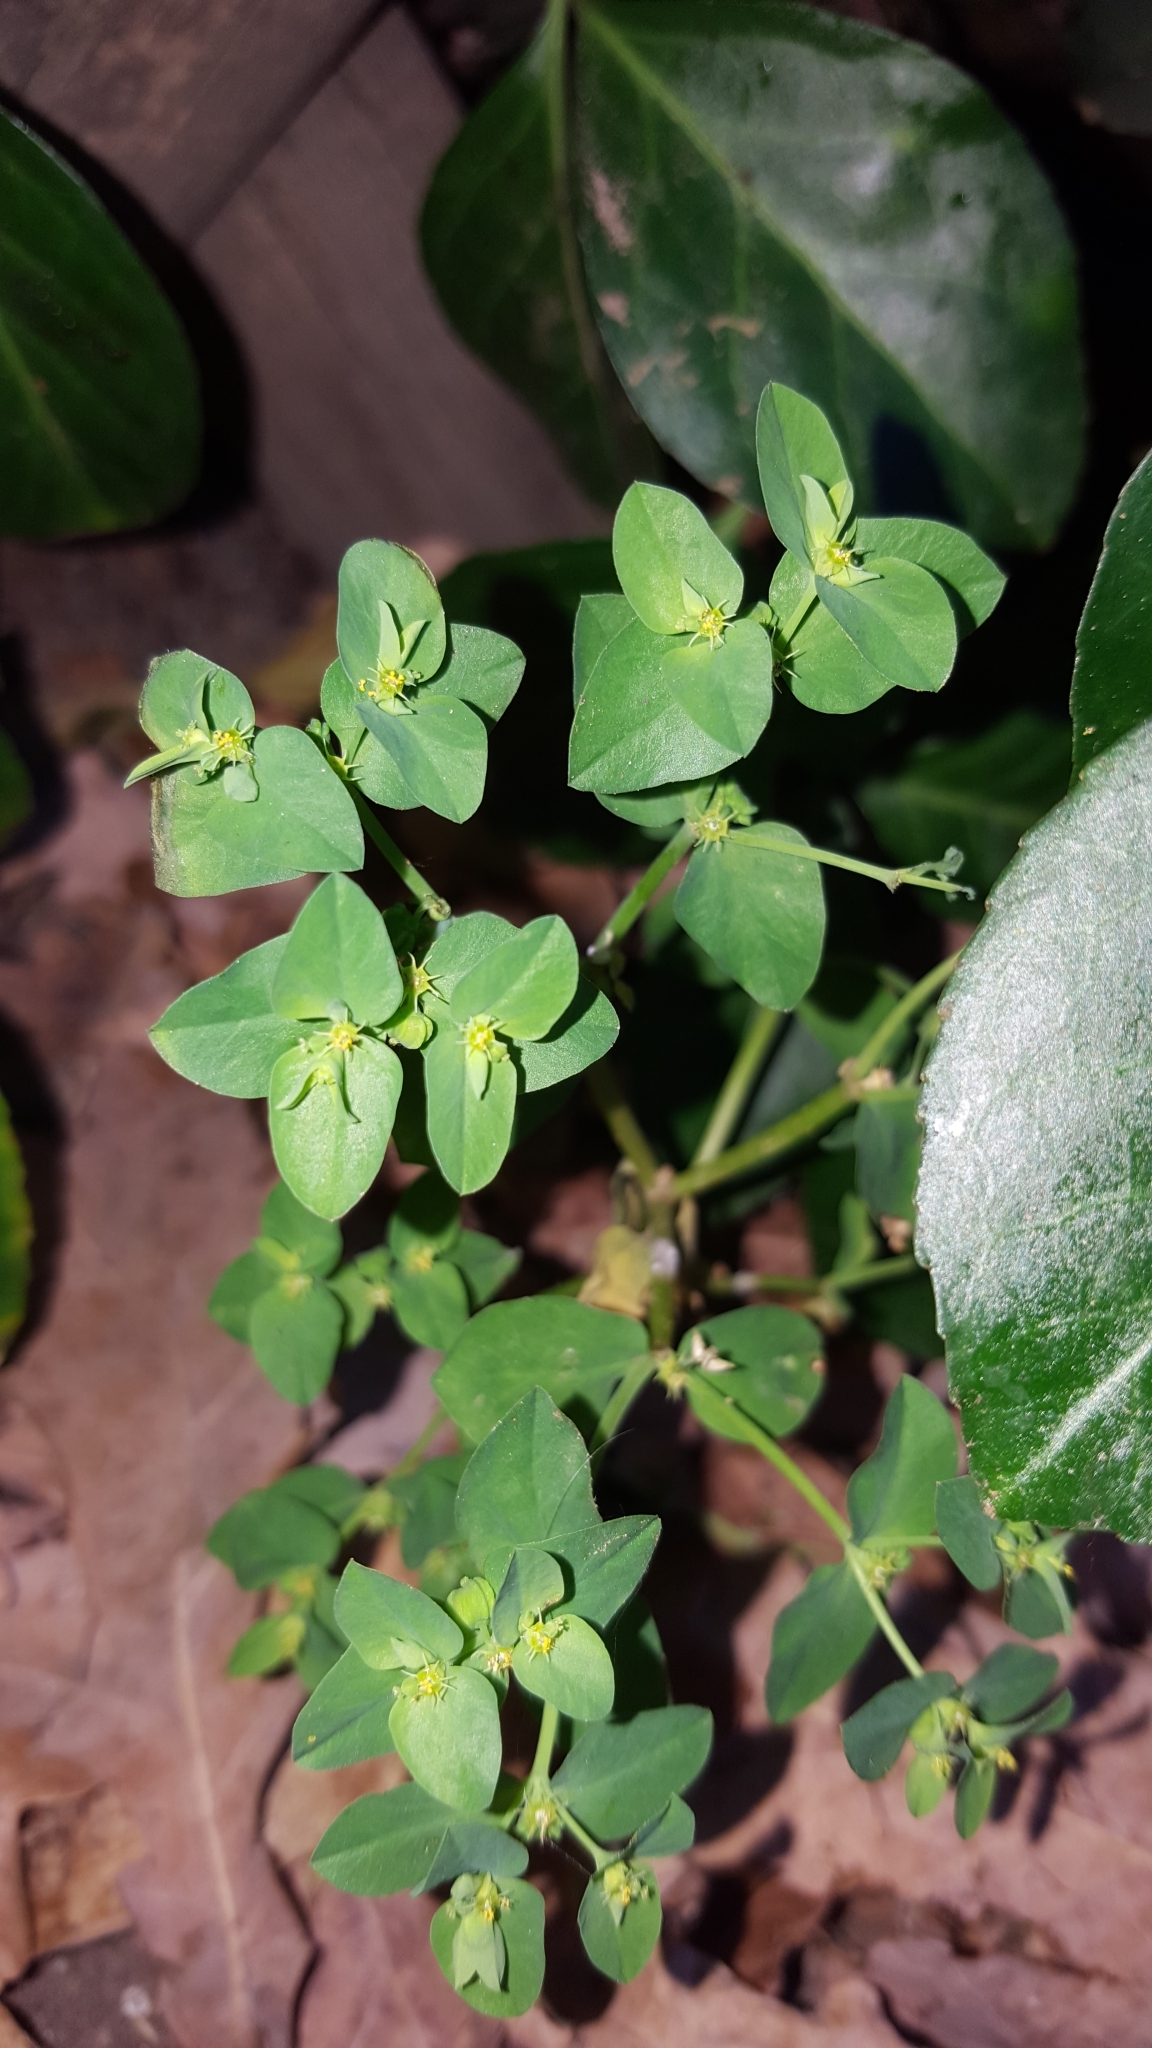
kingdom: Plantae
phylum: Tracheophyta
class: Magnoliopsida
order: Malpighiales
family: Euphorbiaceae
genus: Euphorbia
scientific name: Euphorbia peplus
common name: Petty spurge
